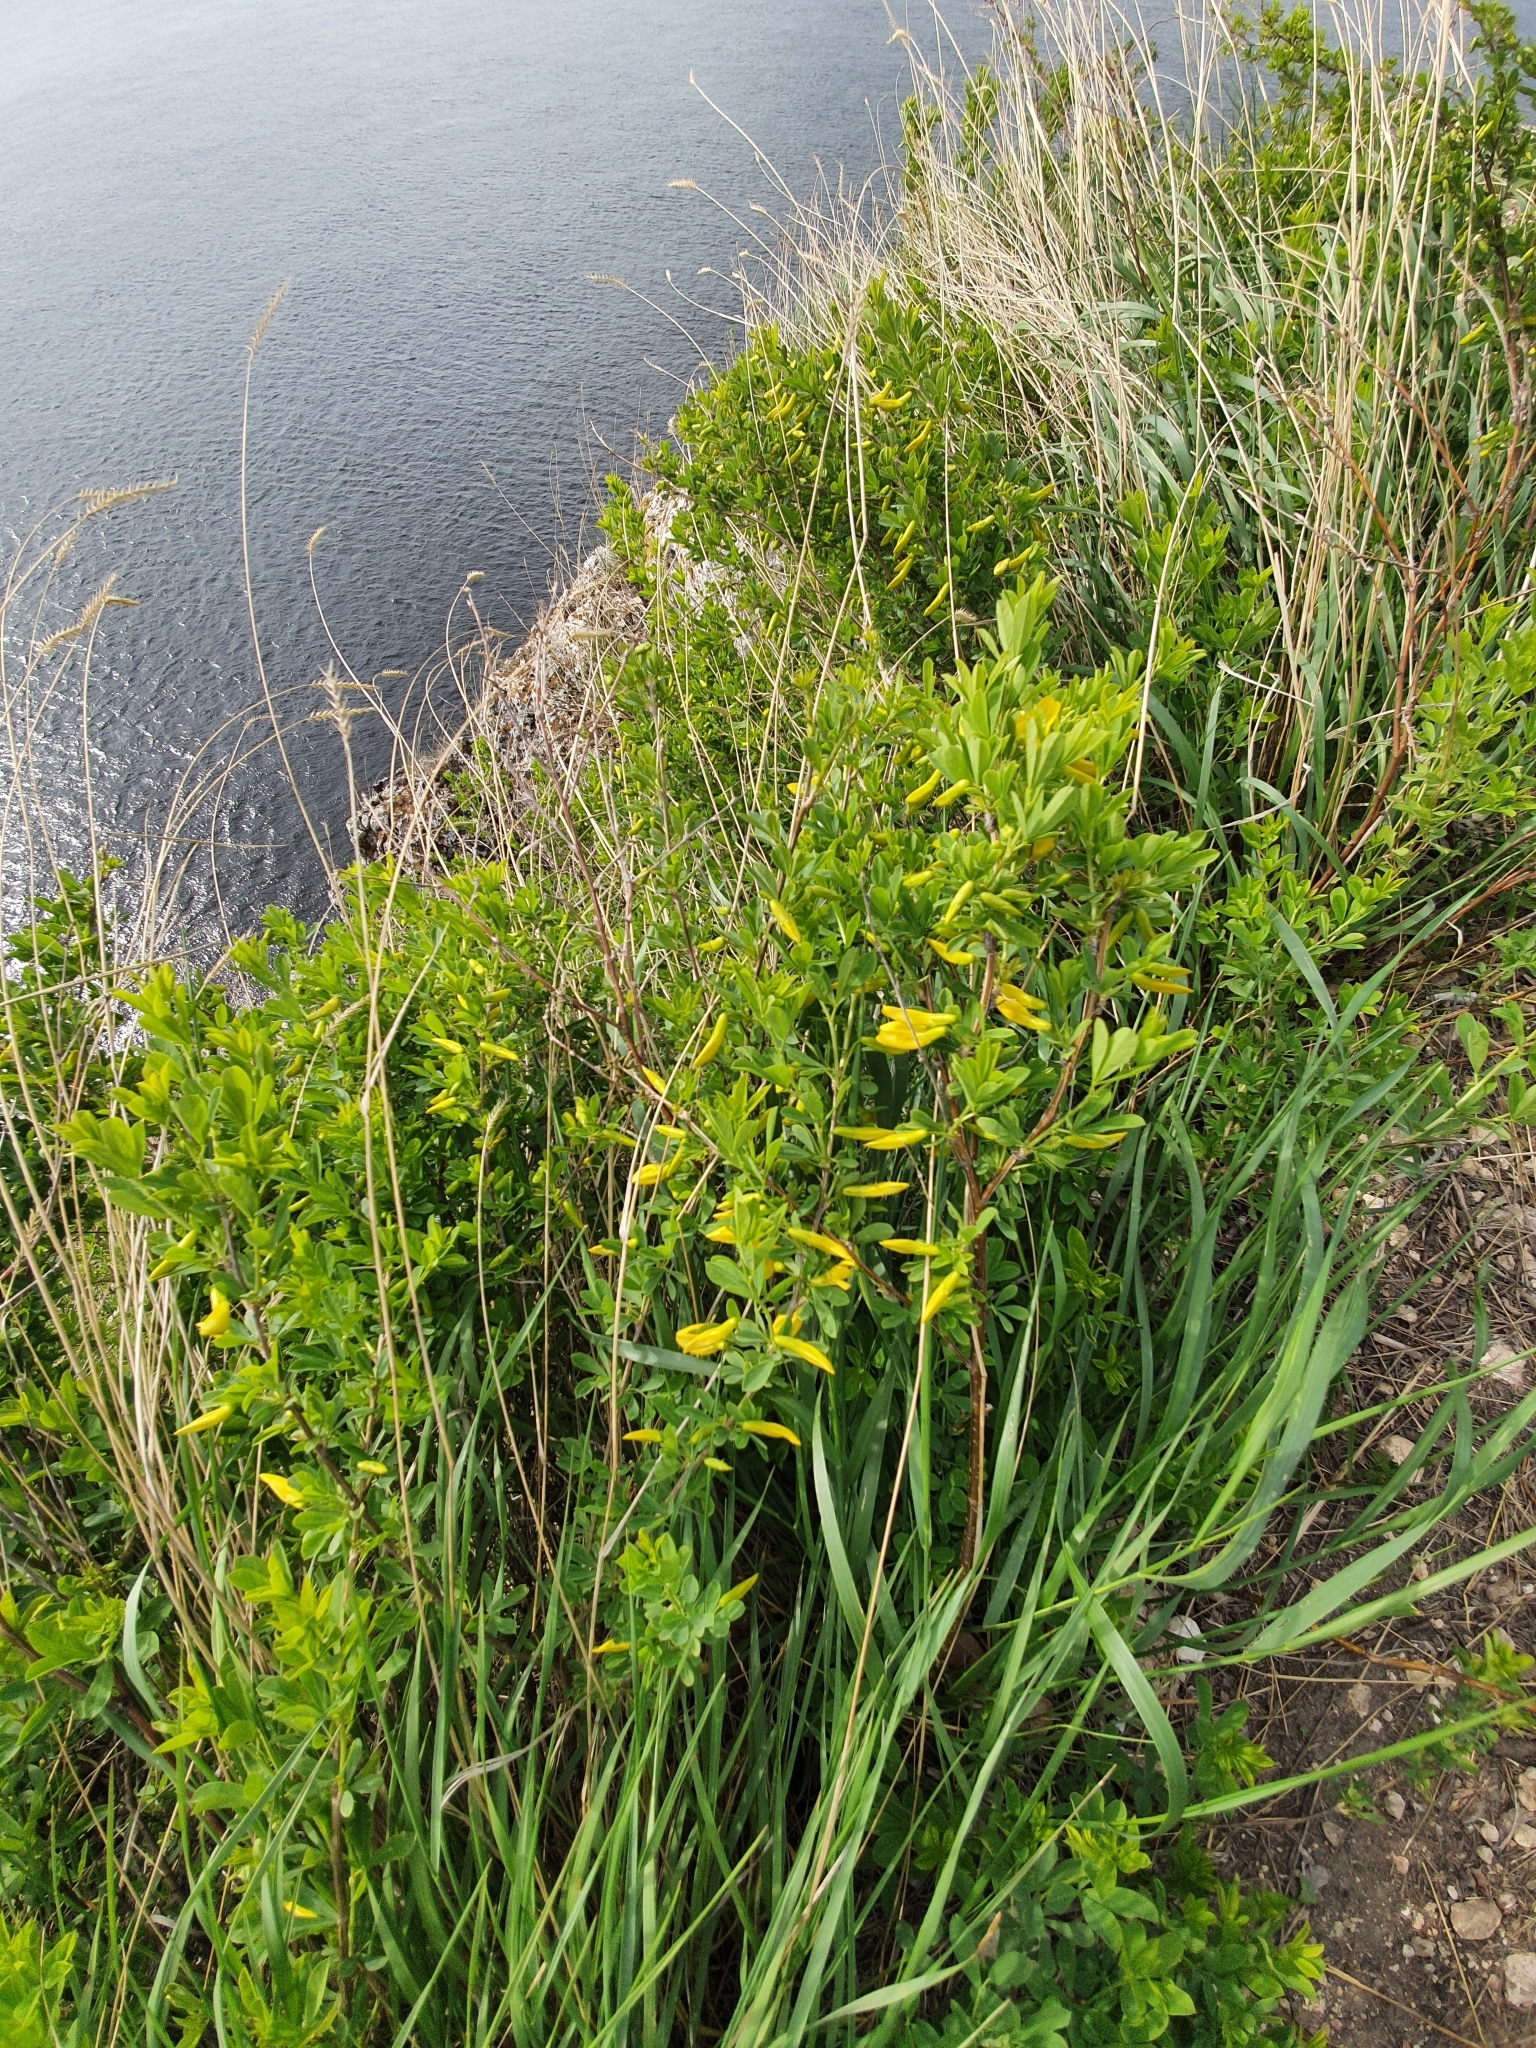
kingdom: Plantae
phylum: Tracheophyta
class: Magnoliopsida
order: Fabales
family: Fabaceae
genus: Caragana
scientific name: Caragana frutex
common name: Russian peashrub
